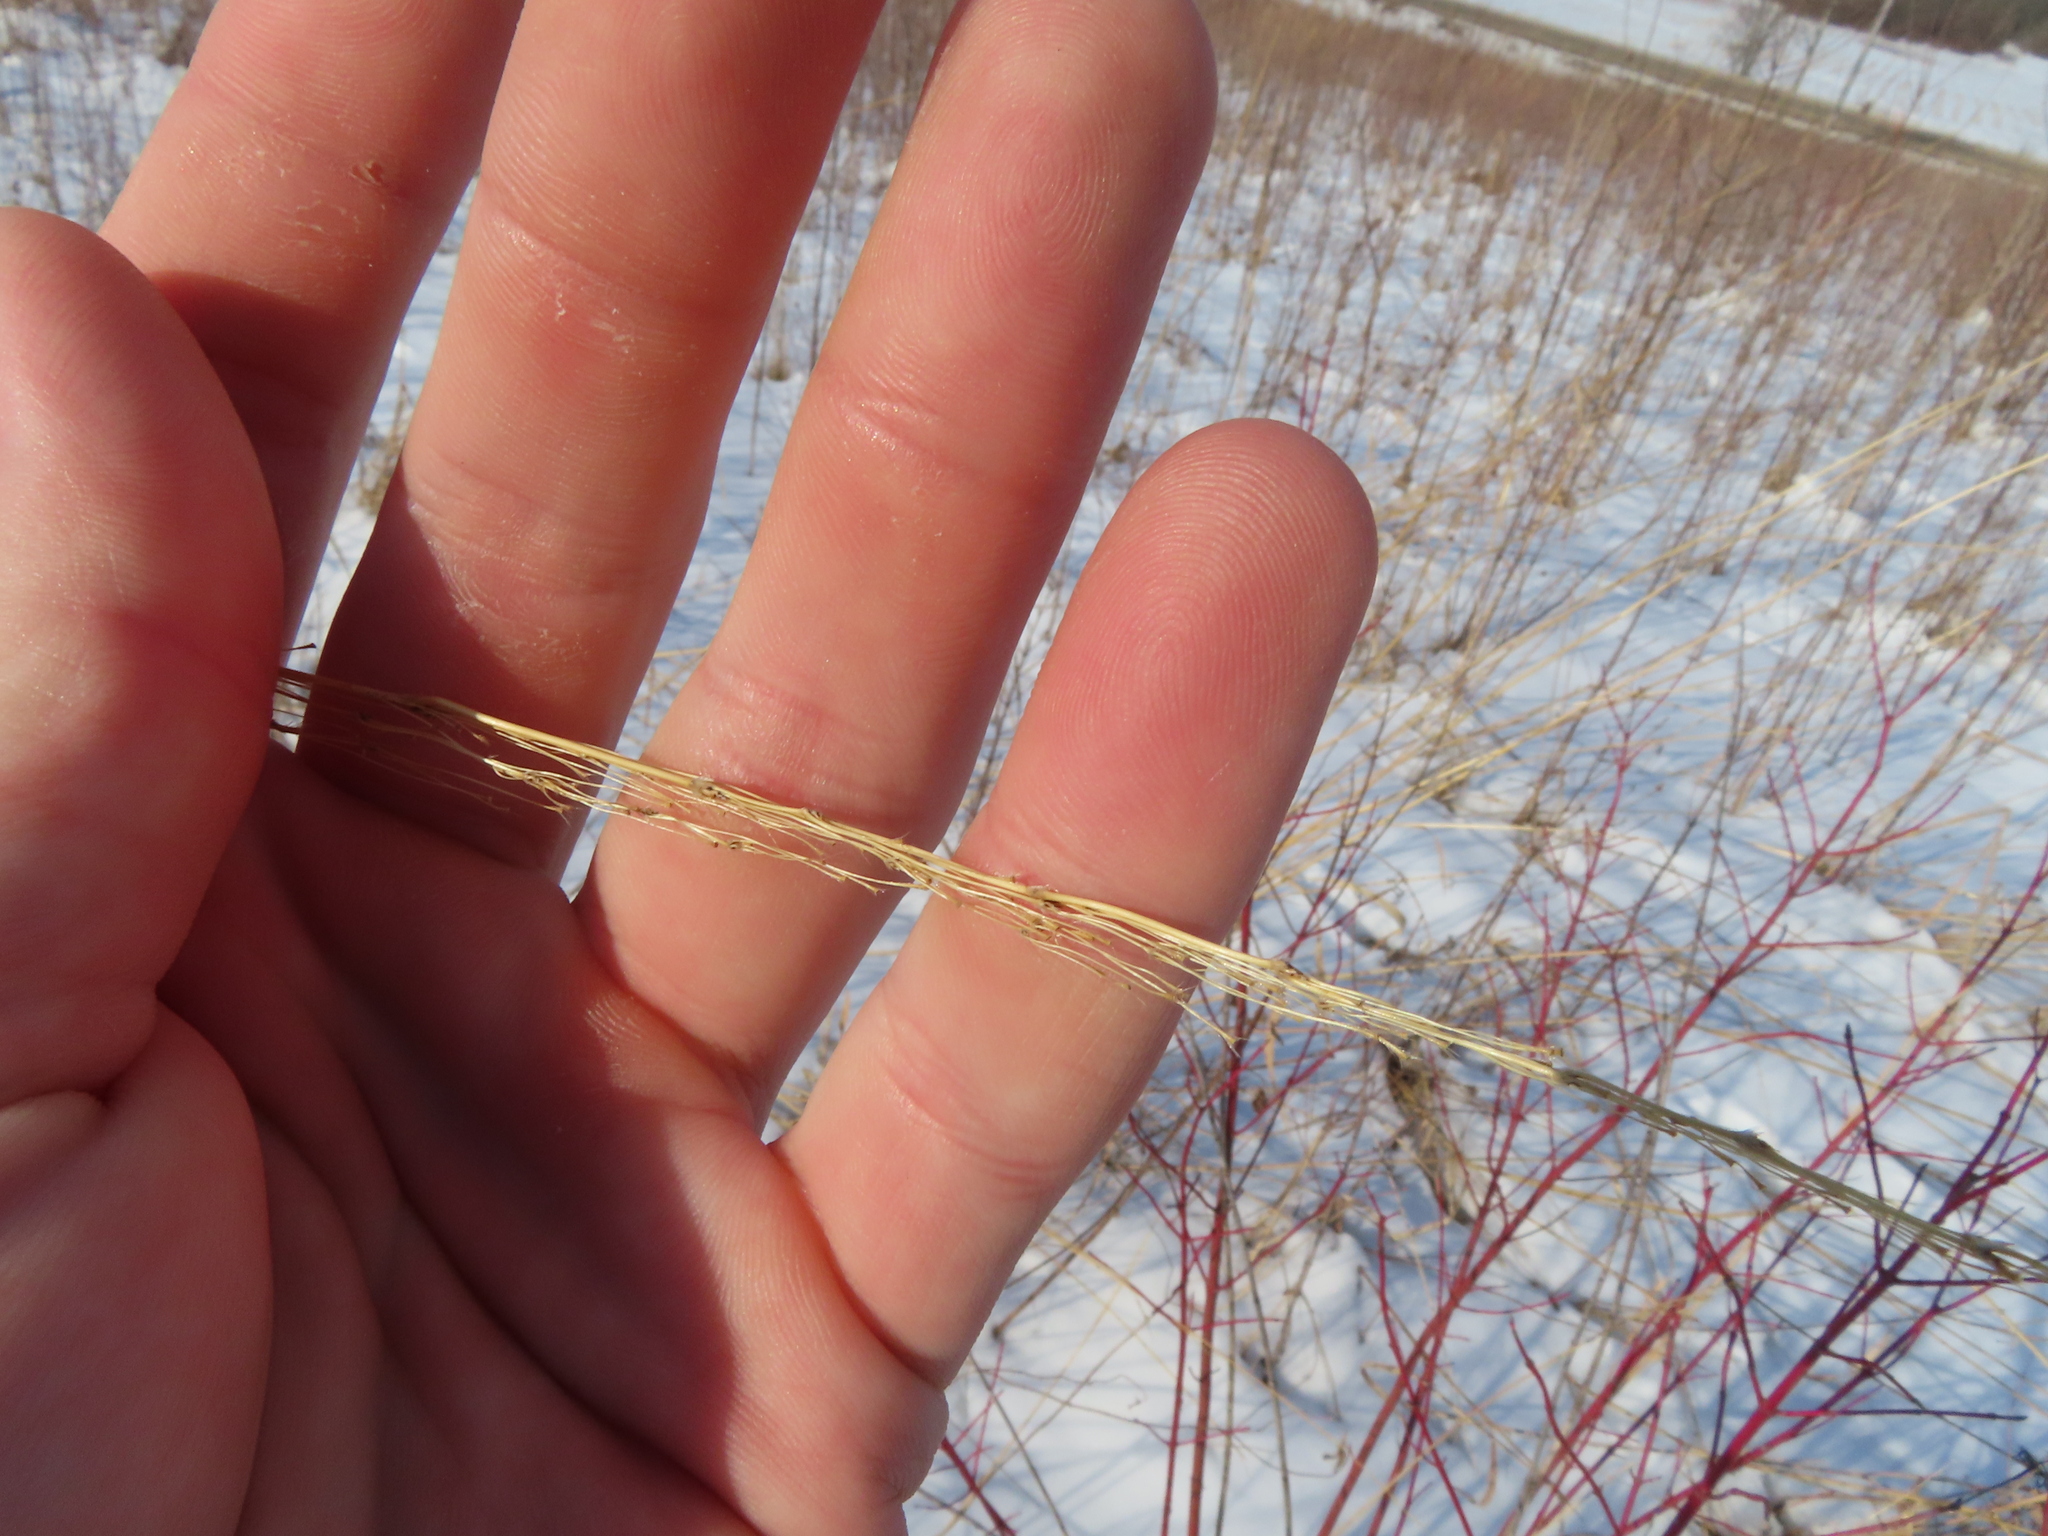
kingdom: Plantae
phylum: Tracheophyta
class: Liliopsida
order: Poales
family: Poaceae
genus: Sorghastrum
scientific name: Sorghastrum nutans
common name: Indian grass
